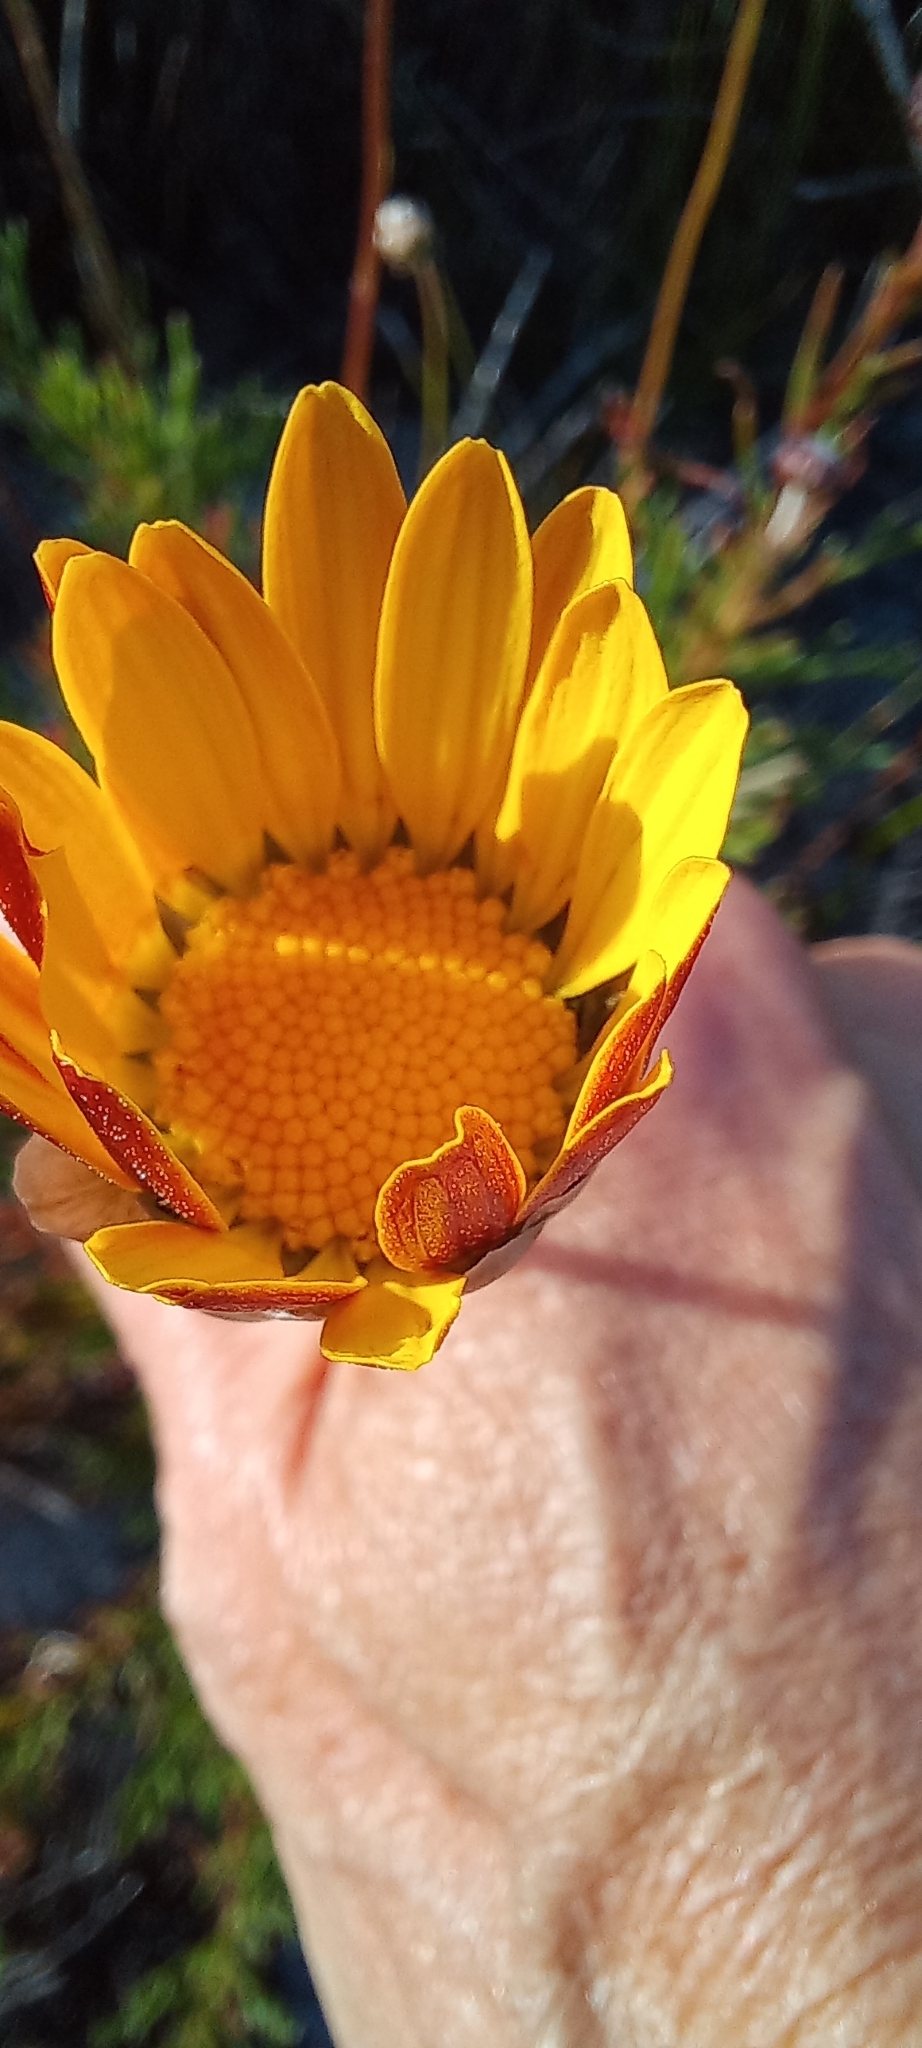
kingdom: Plantae
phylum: Tracheophyta
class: Magnoliopsida
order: Asterales
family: Asteraceae
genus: Ursinia
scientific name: Ursinia paleacea
